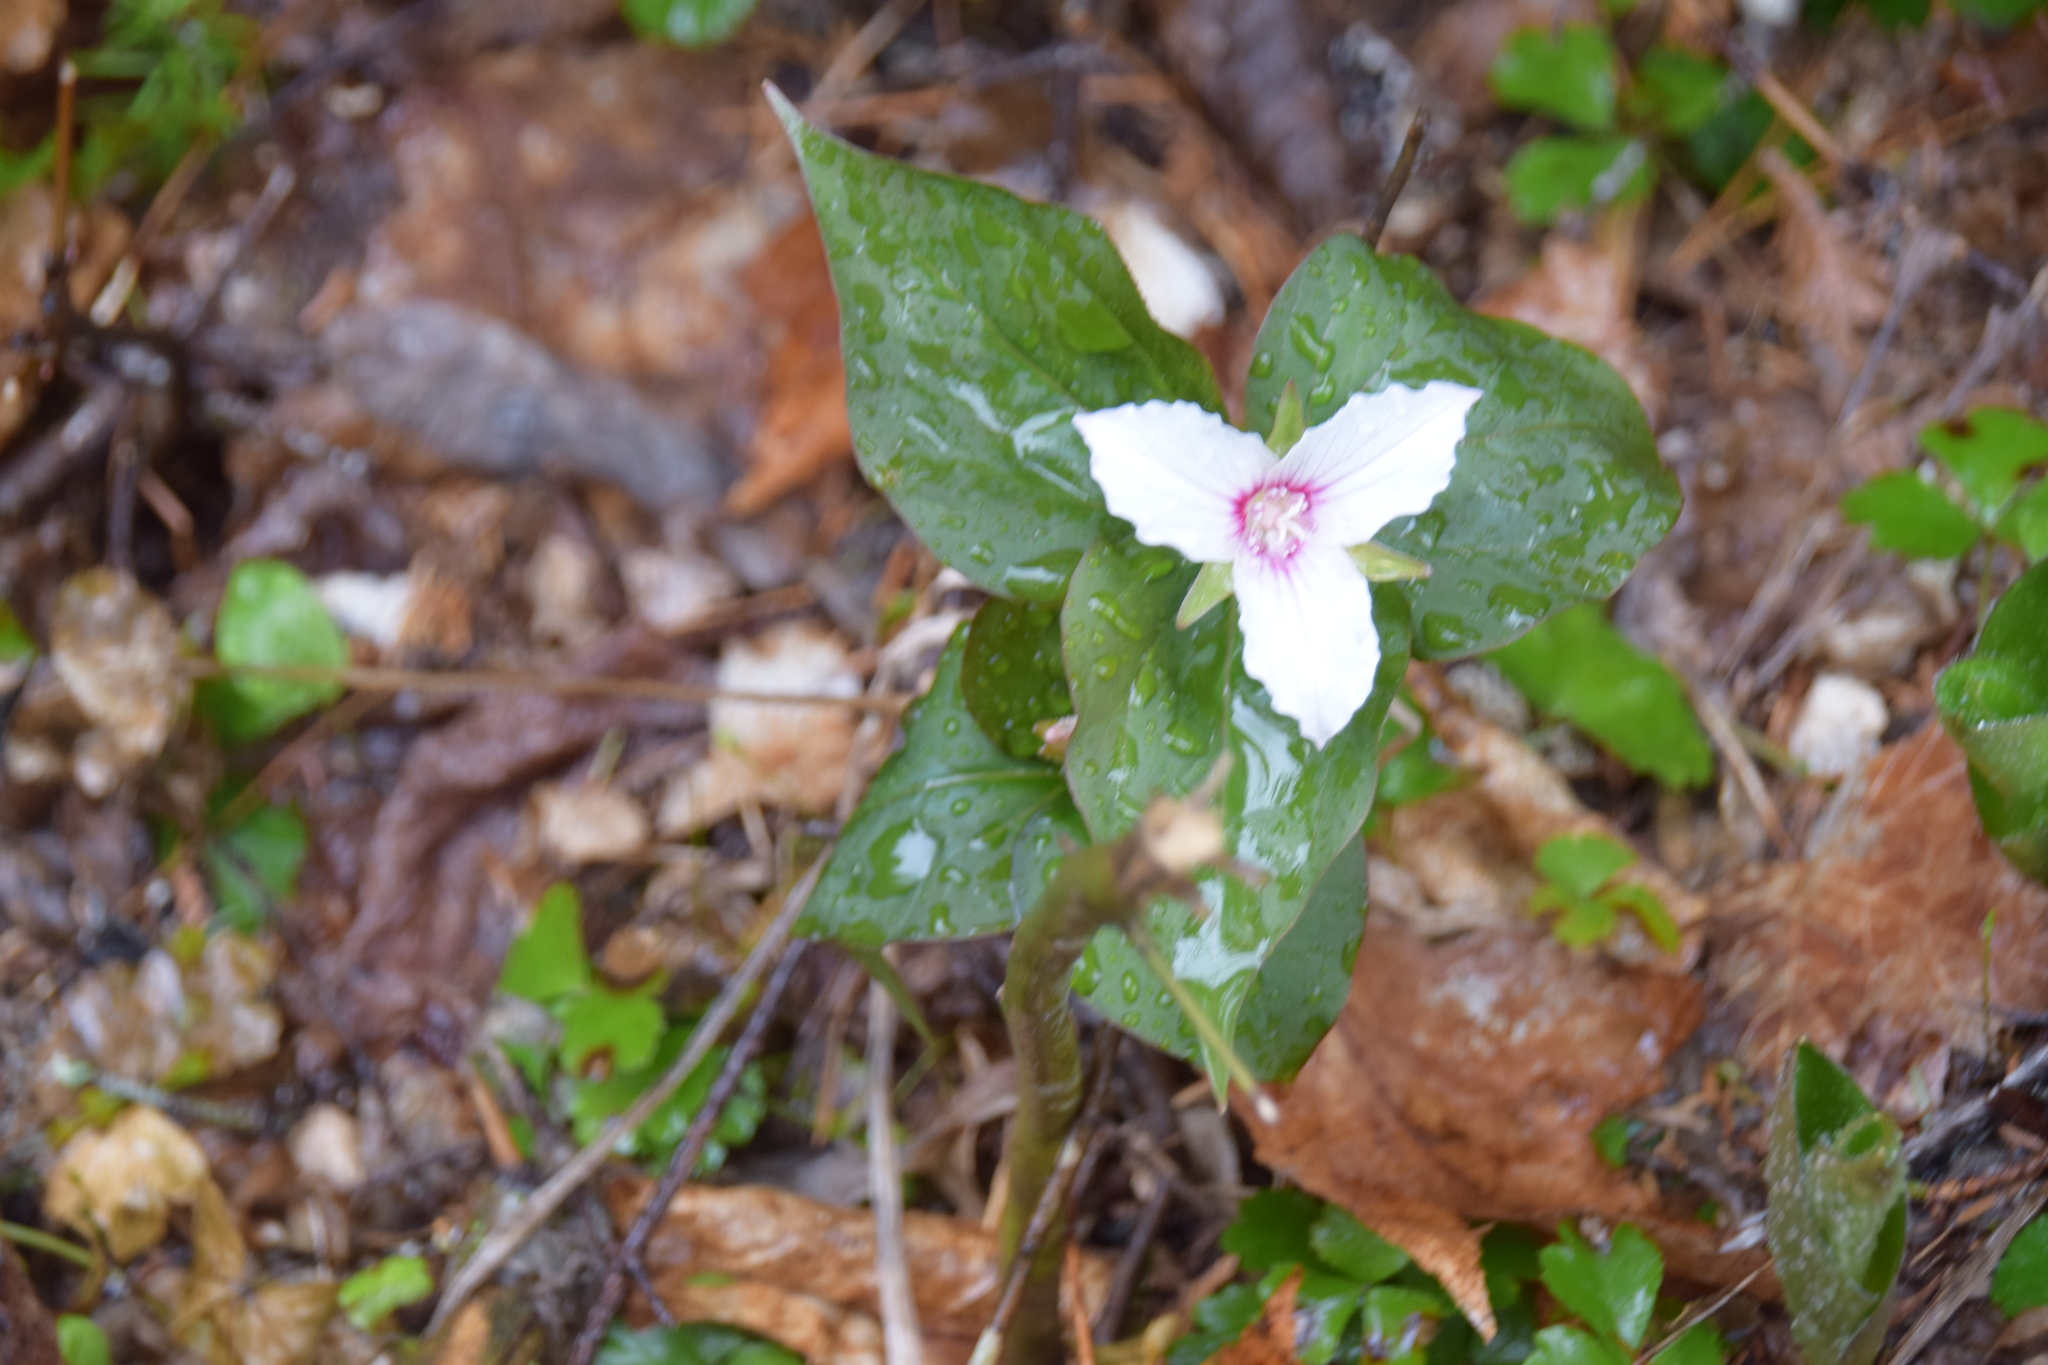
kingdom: Plantae
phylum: Tracheophyta
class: Liliopsida
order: Liliales
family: Melanthiaceae
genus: Trillium
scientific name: Trillium undulatum
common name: Paint trillium
